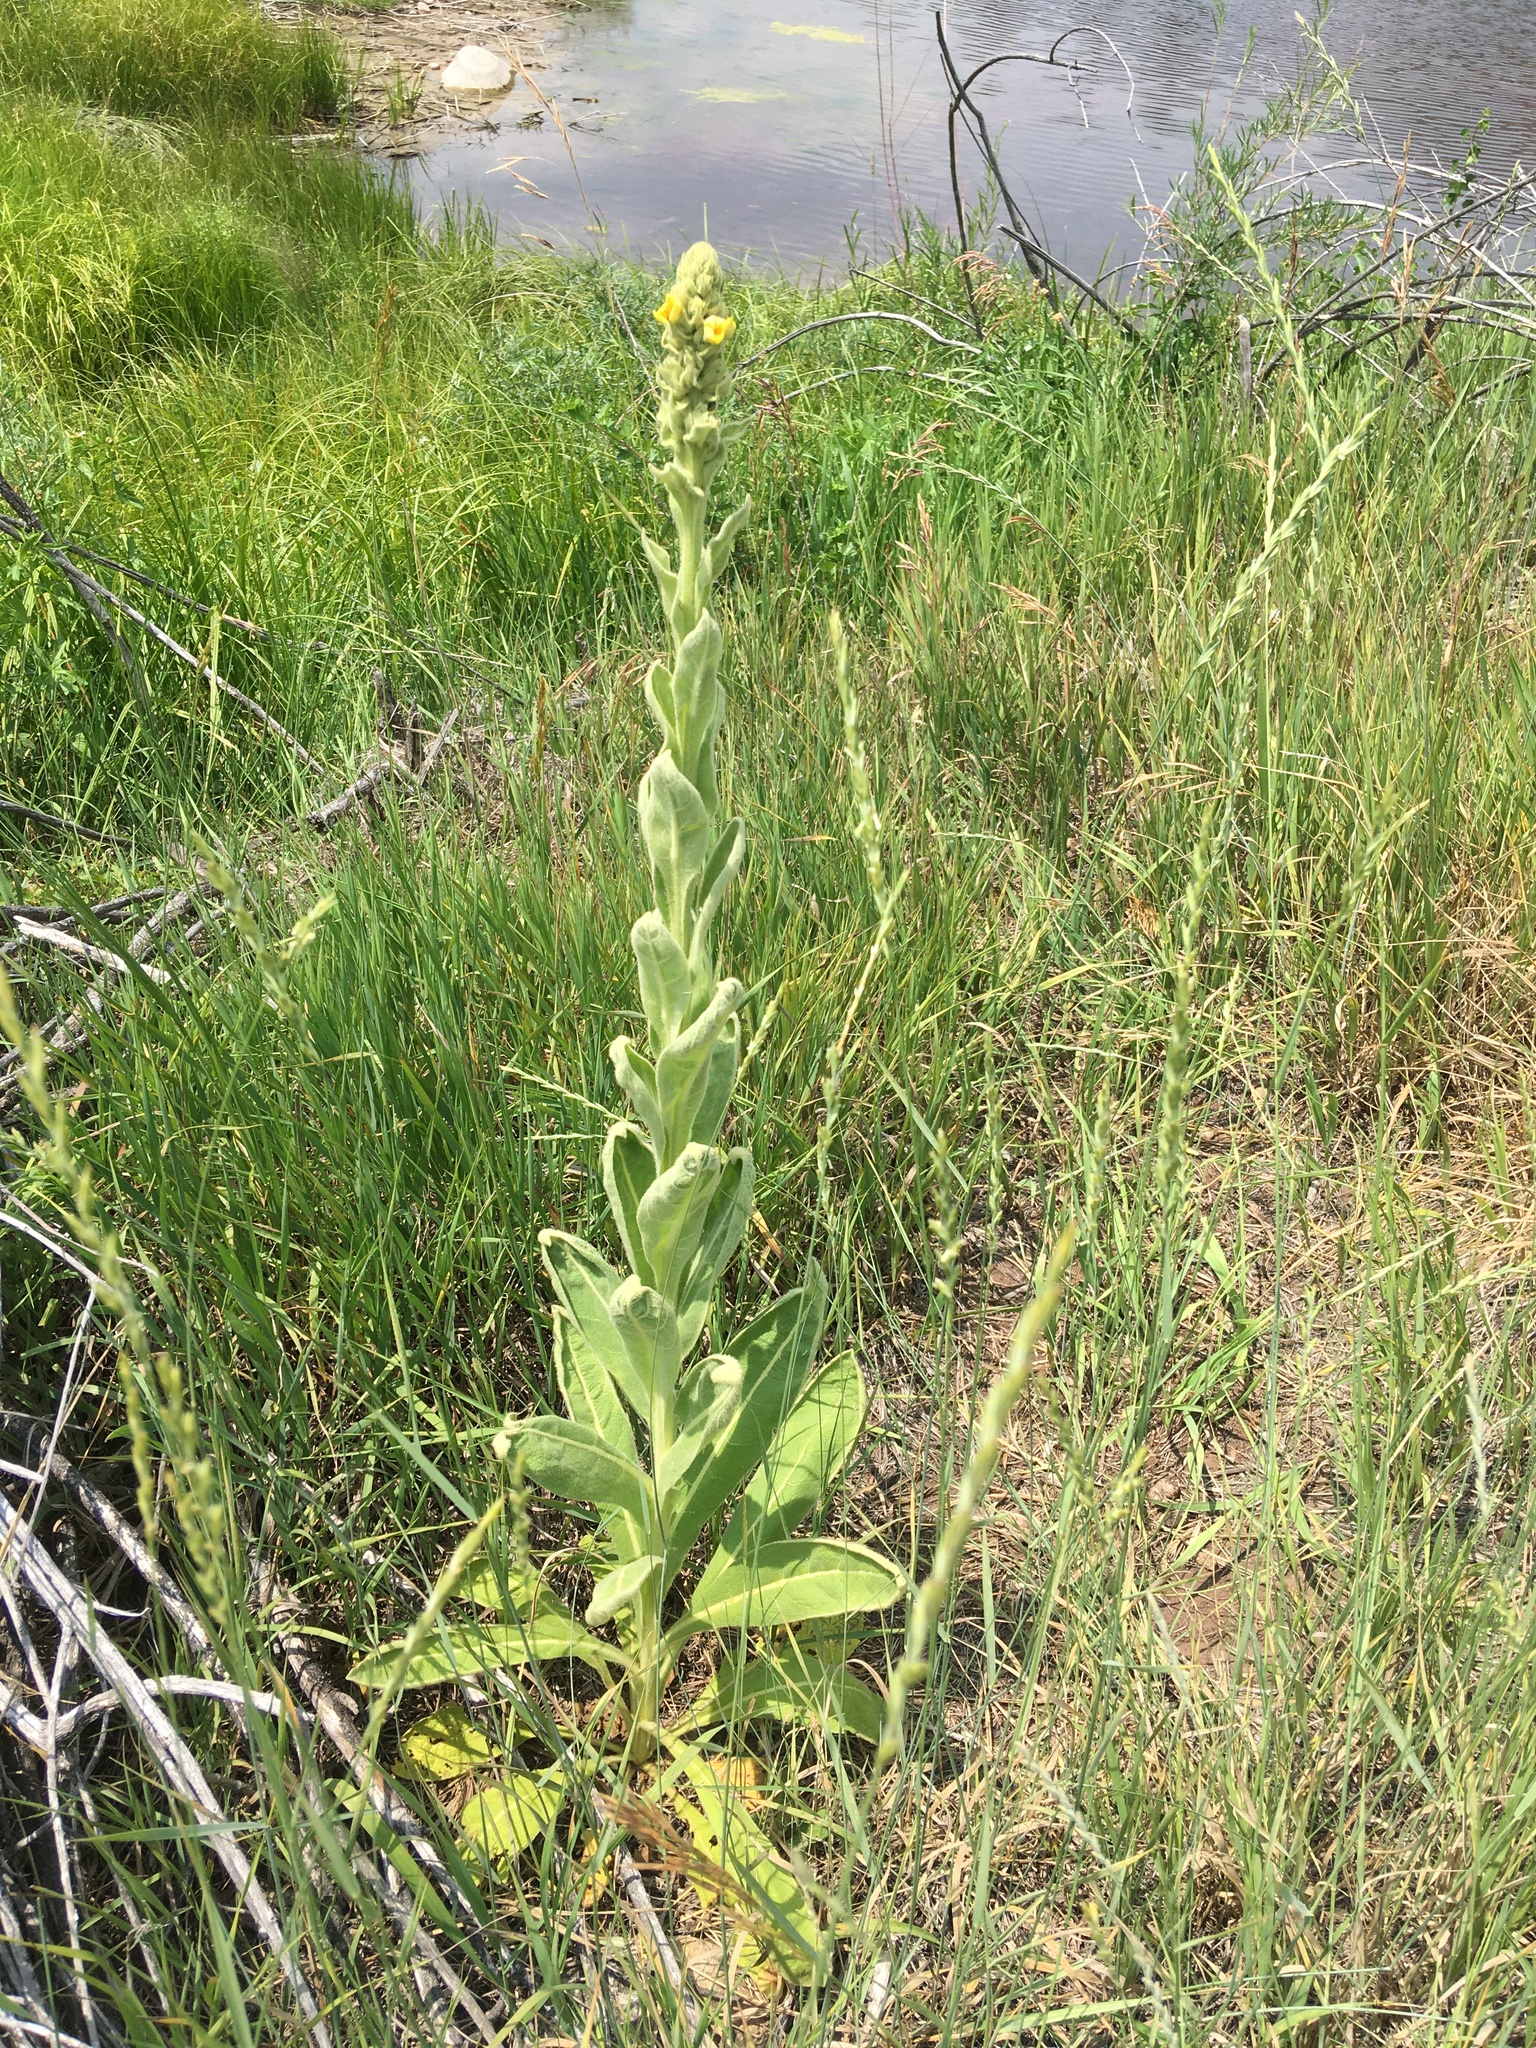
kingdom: Plantae
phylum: Tracheophyta
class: Magnoliopsida
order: Lamiales
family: Scrophulariaceae
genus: Verbascum
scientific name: Verbascum thapsus
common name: Common mullein
